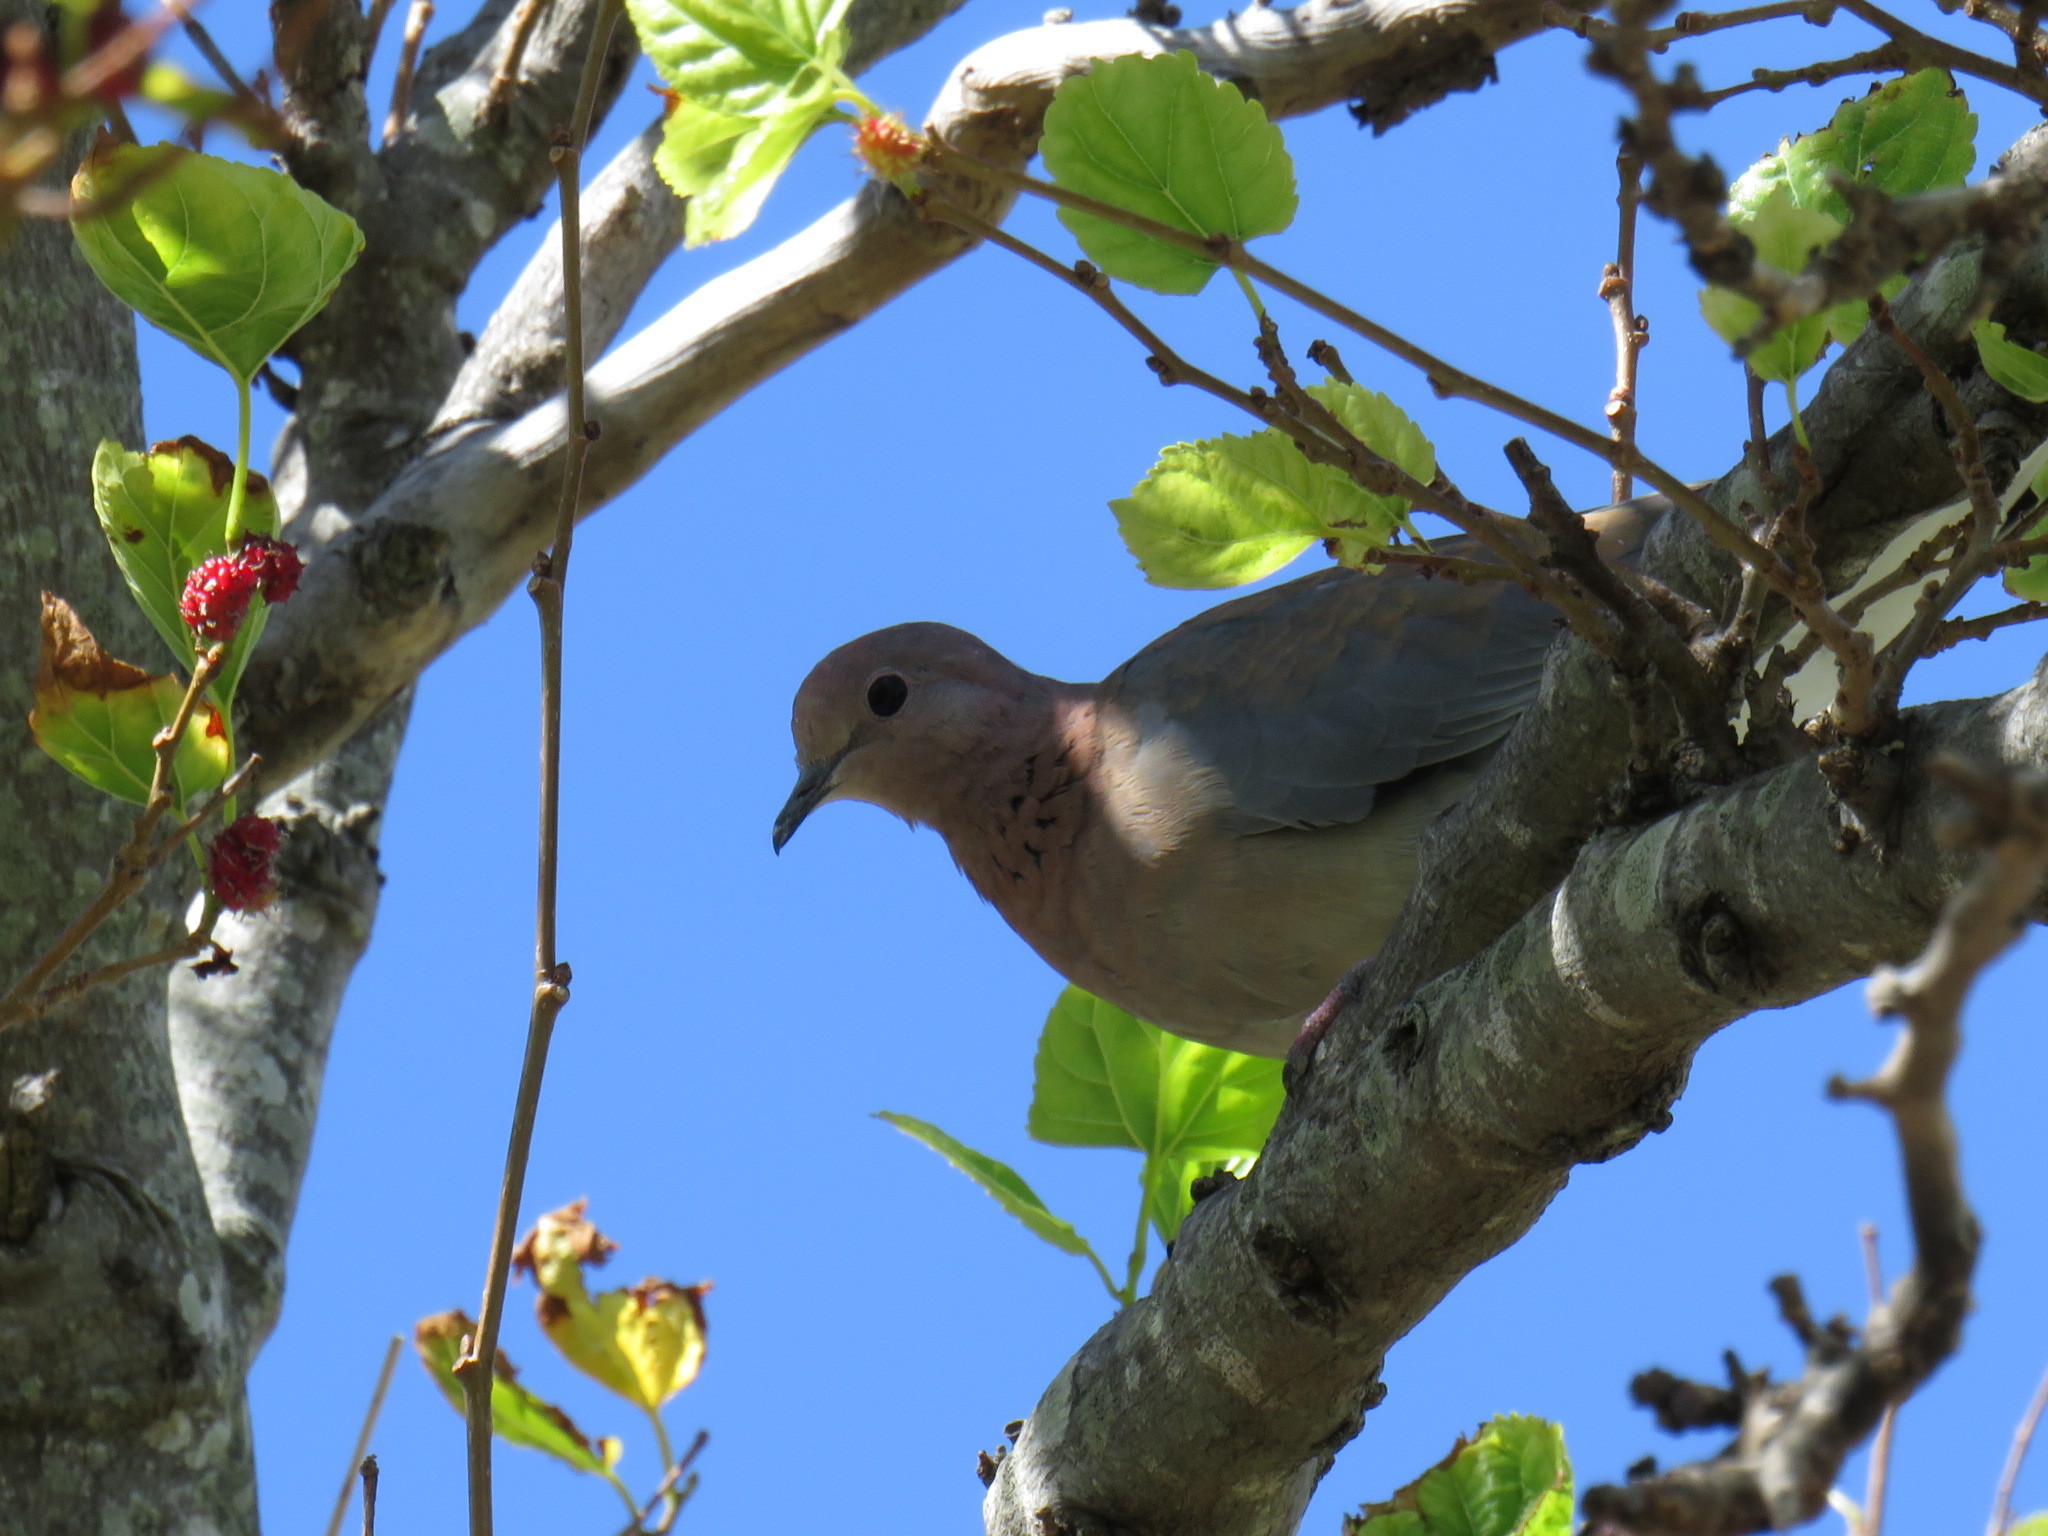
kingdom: Animalia
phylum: Chordata
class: Aves
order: Columbiformes
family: Columbidae
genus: Spilopelia
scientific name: Spilopelia senegalensis
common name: Laughing dove
